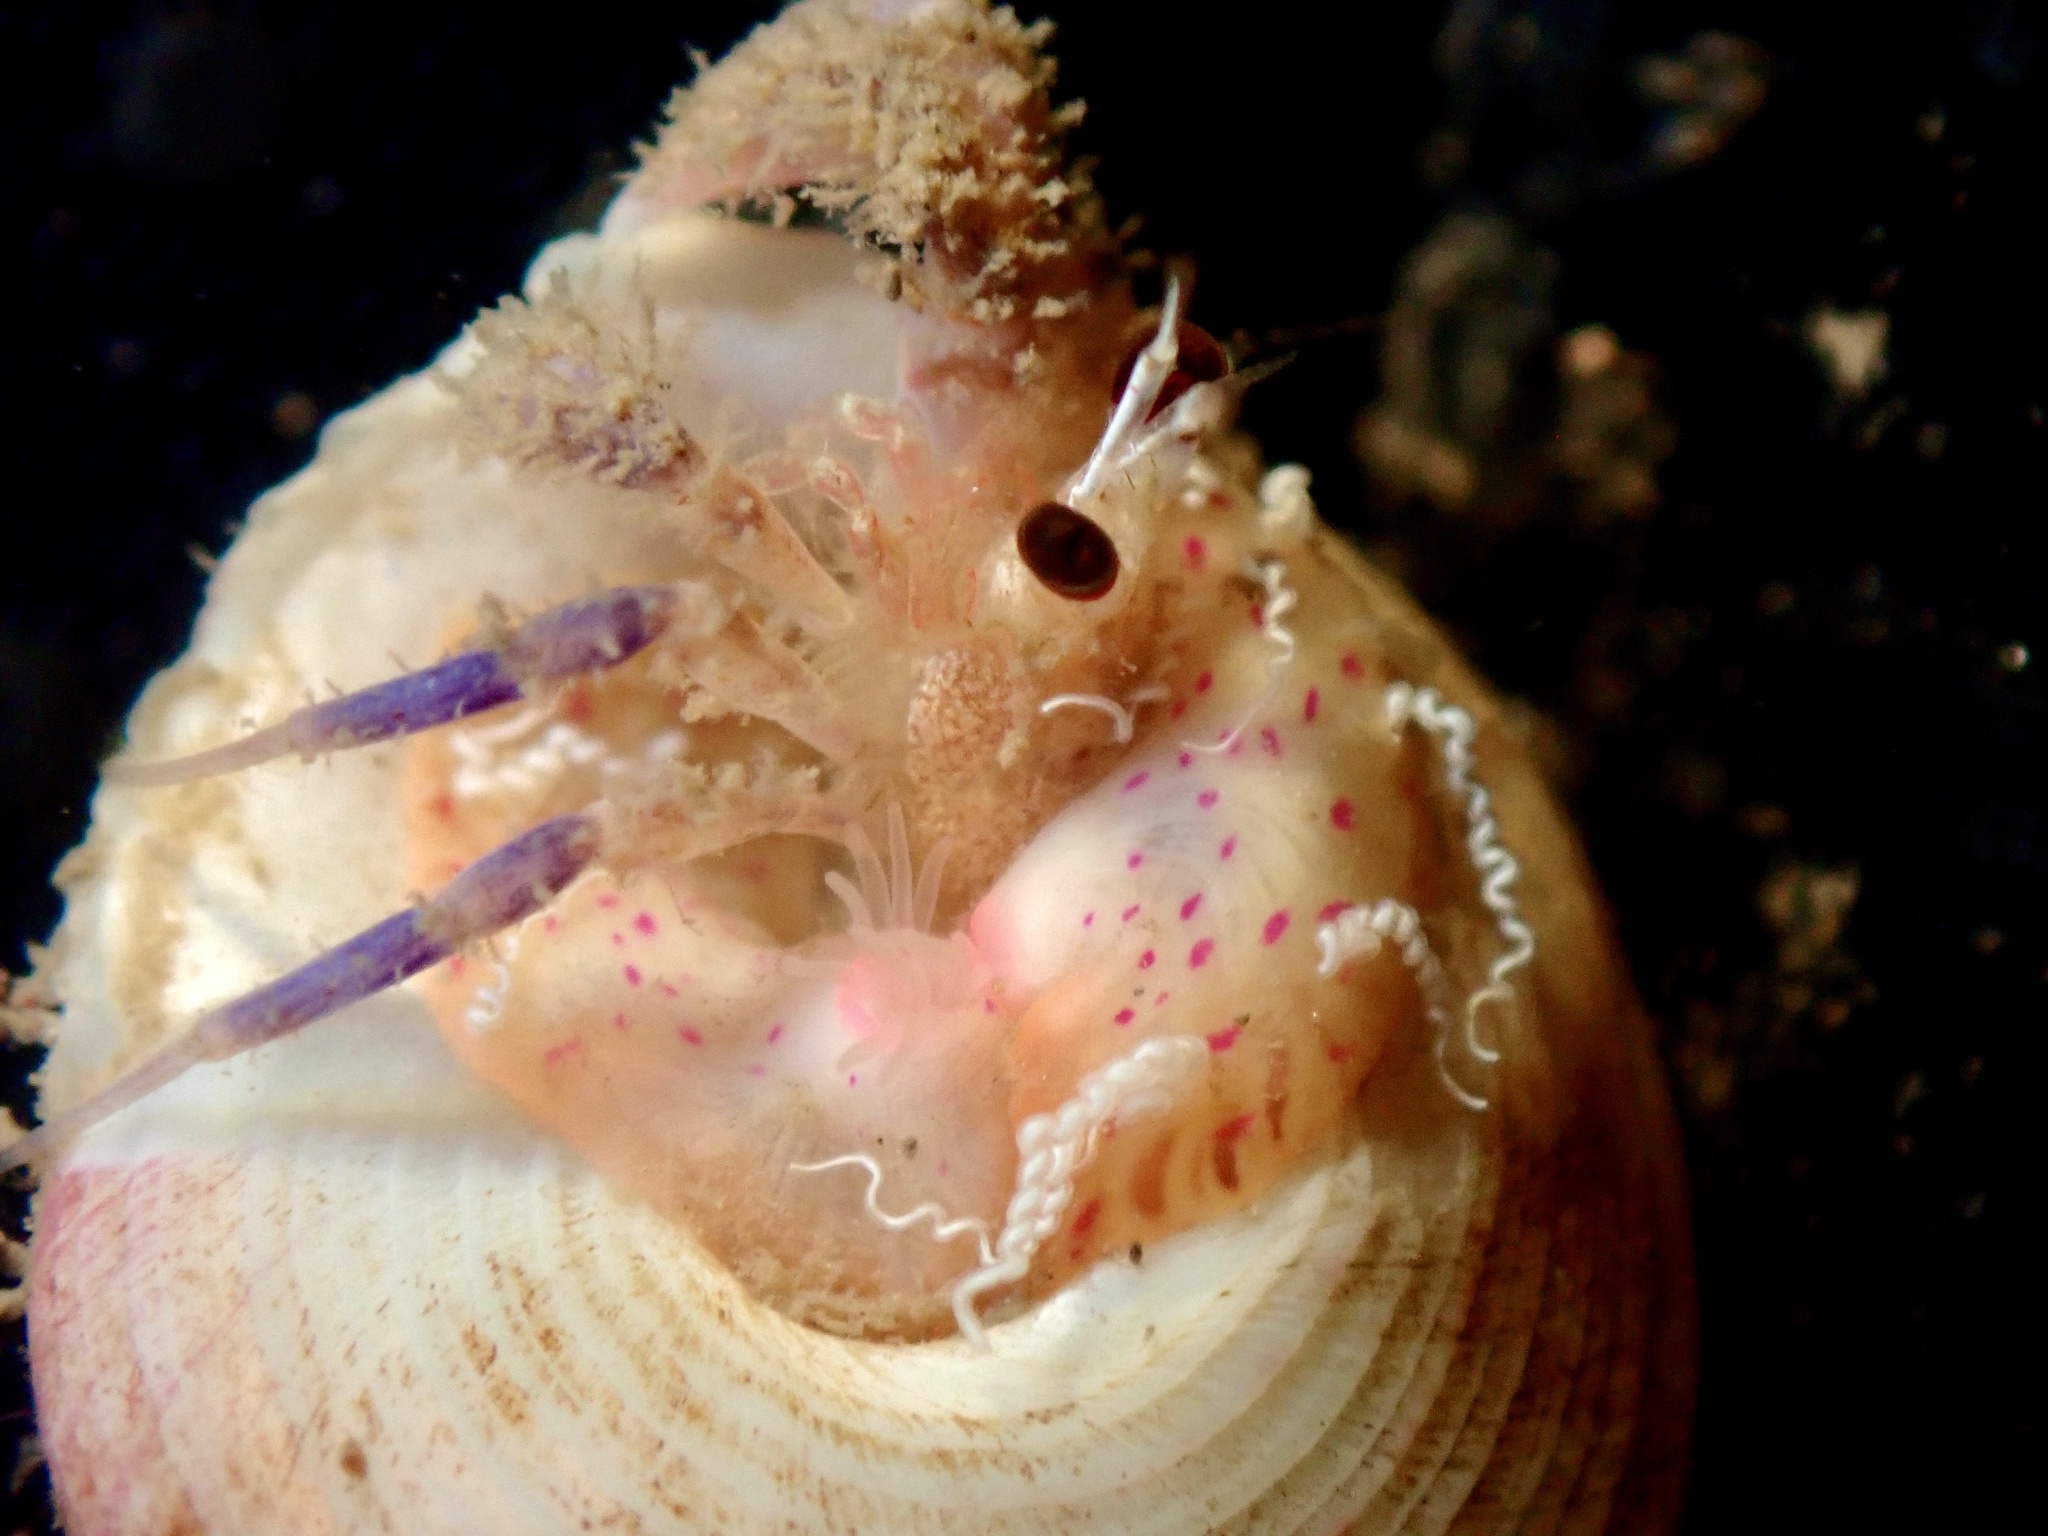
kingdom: Animalia
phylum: Arthropoda
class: Malacostraca
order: Decapoda
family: Paguridae
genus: Pagurus
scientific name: Pagurus prideaux
